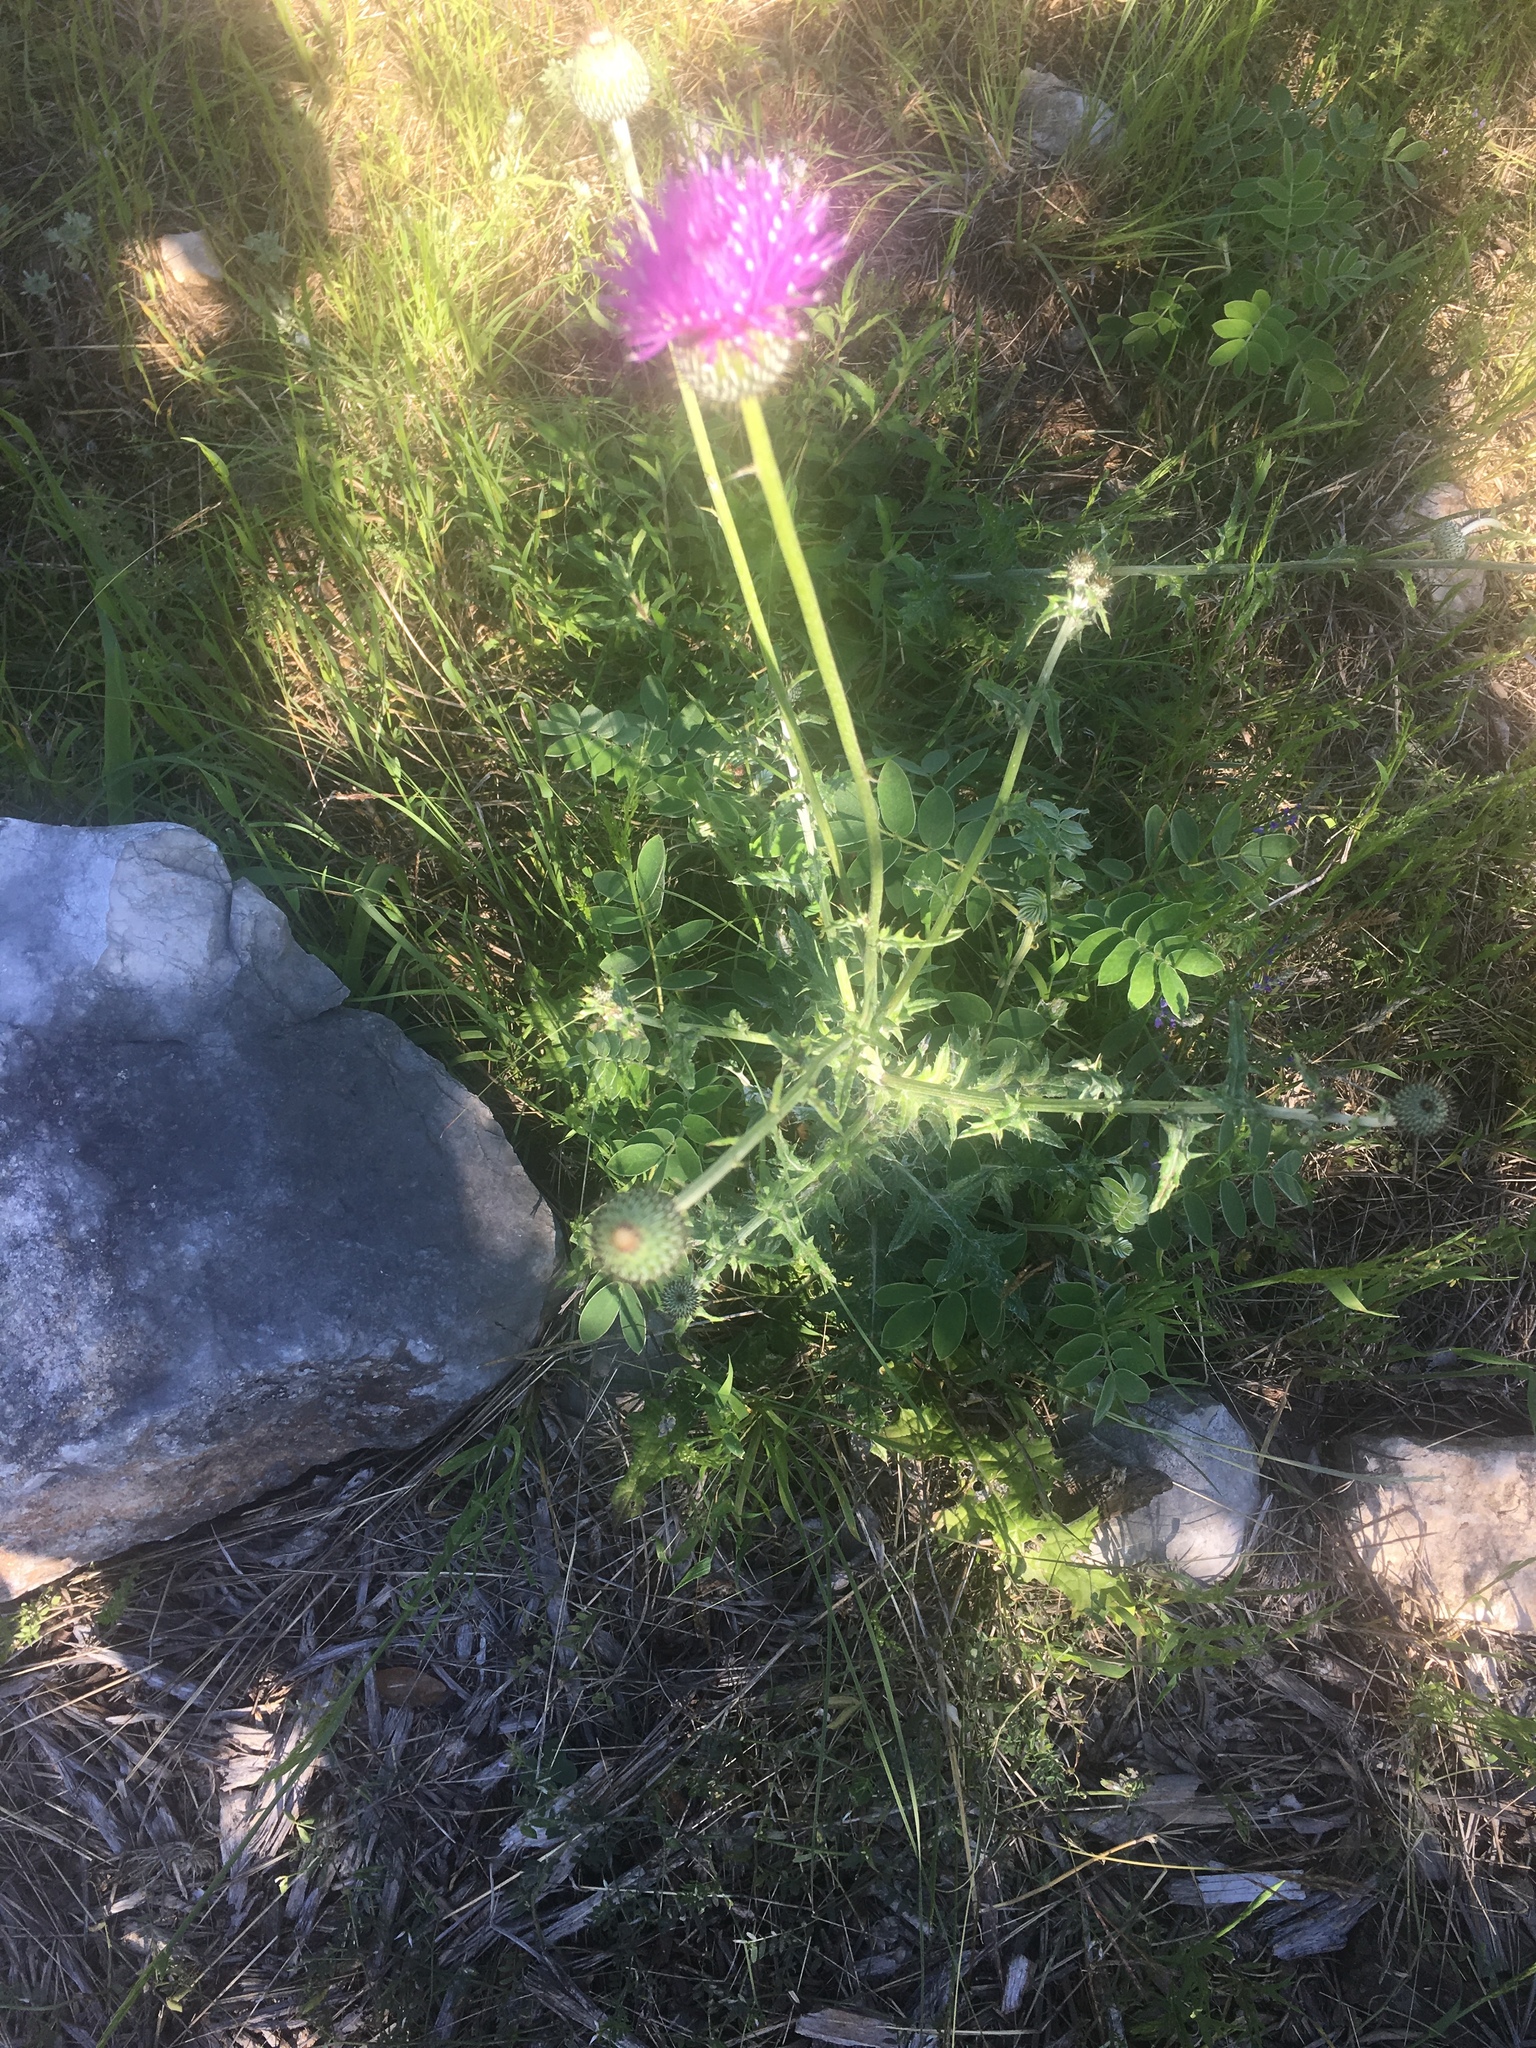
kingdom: Plantae
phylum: Tracheophyta
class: Magnoliopsida
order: Asterales
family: Asteraceae
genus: Cirsium
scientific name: Cirsium texanum
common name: Texas purple thistle
